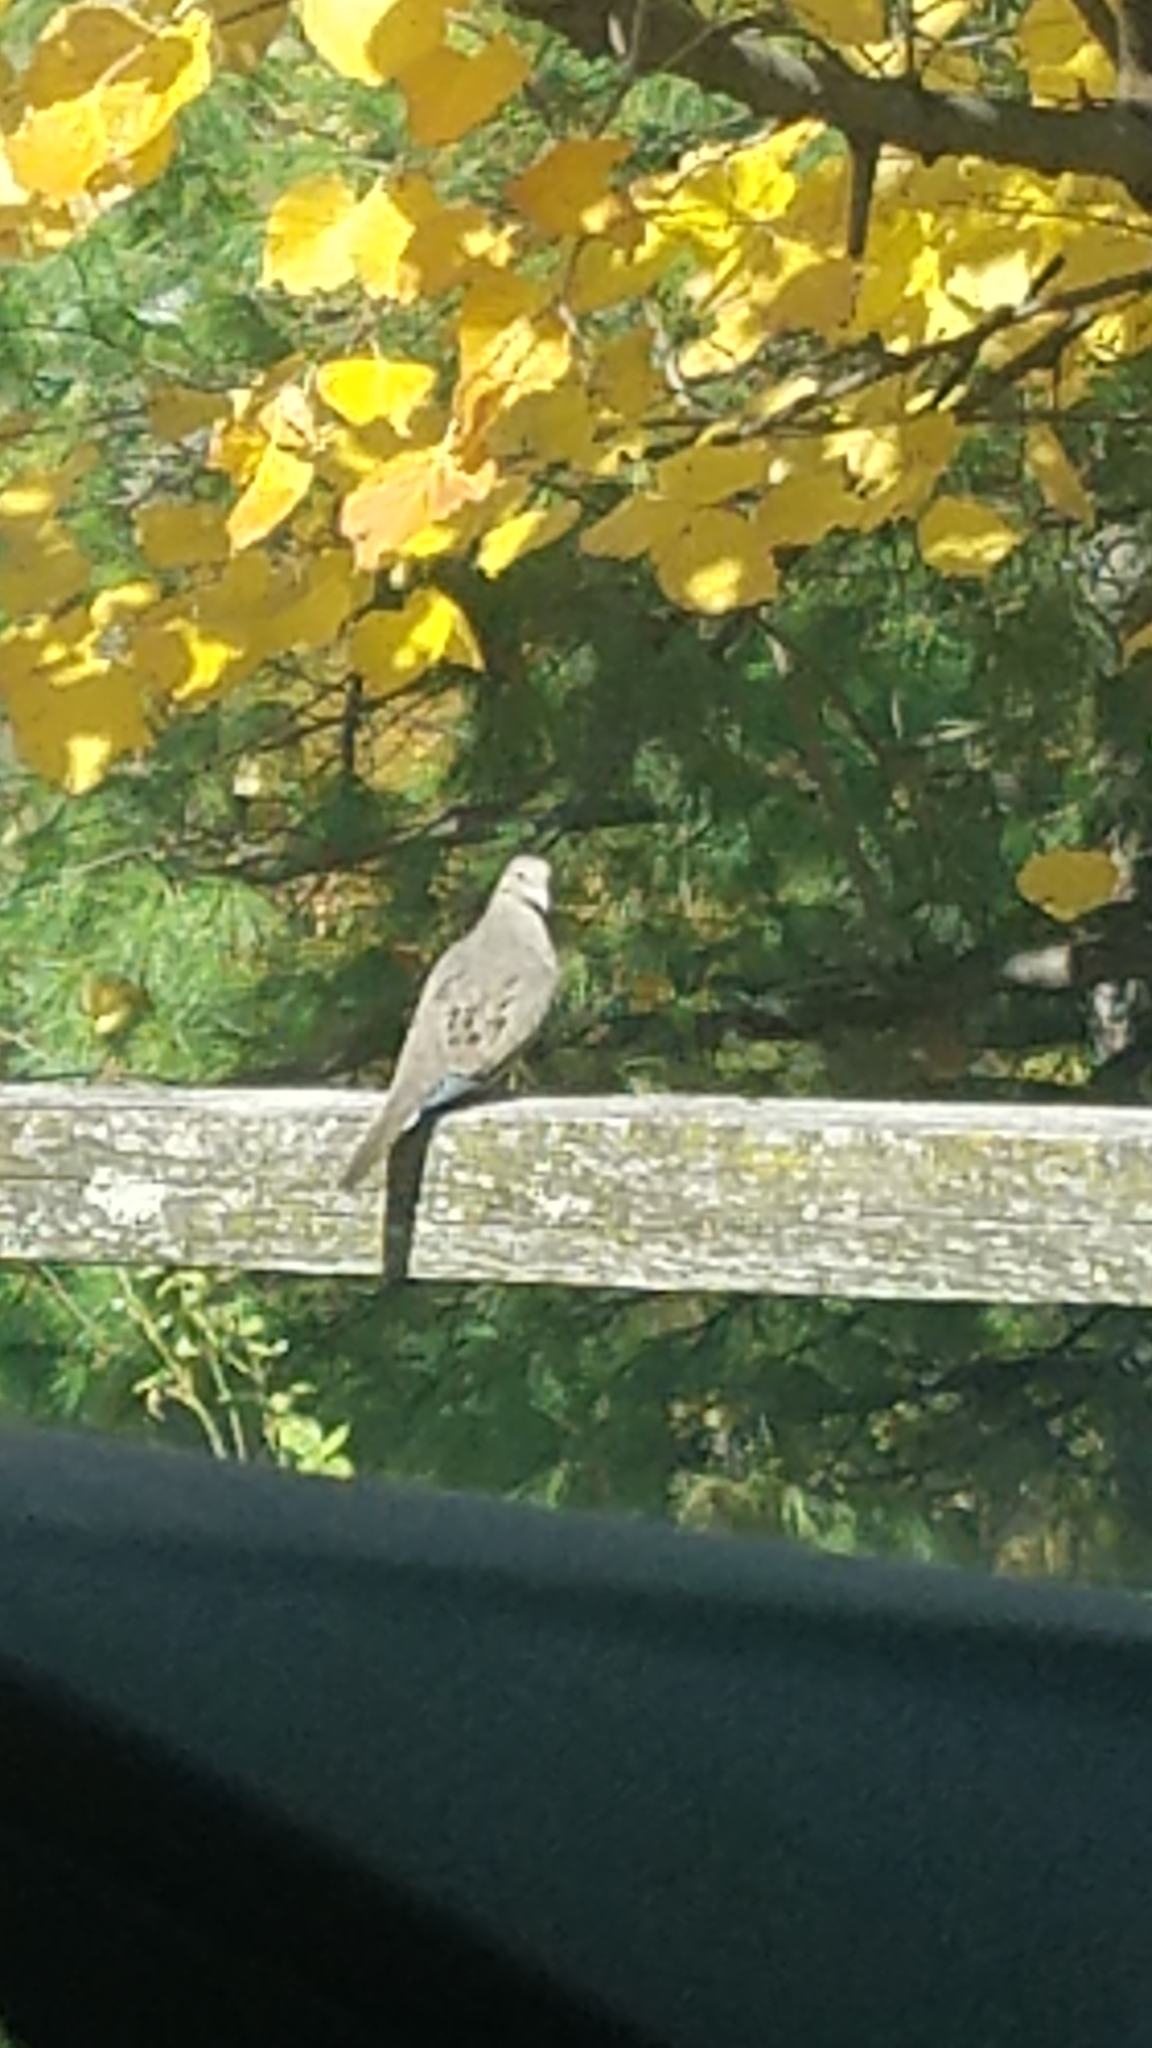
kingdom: Animalia
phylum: Chordata
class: Aves
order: Columbiformes
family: Columbidae
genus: Zenaida
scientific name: Zenaida macroura
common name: Mourning dove
